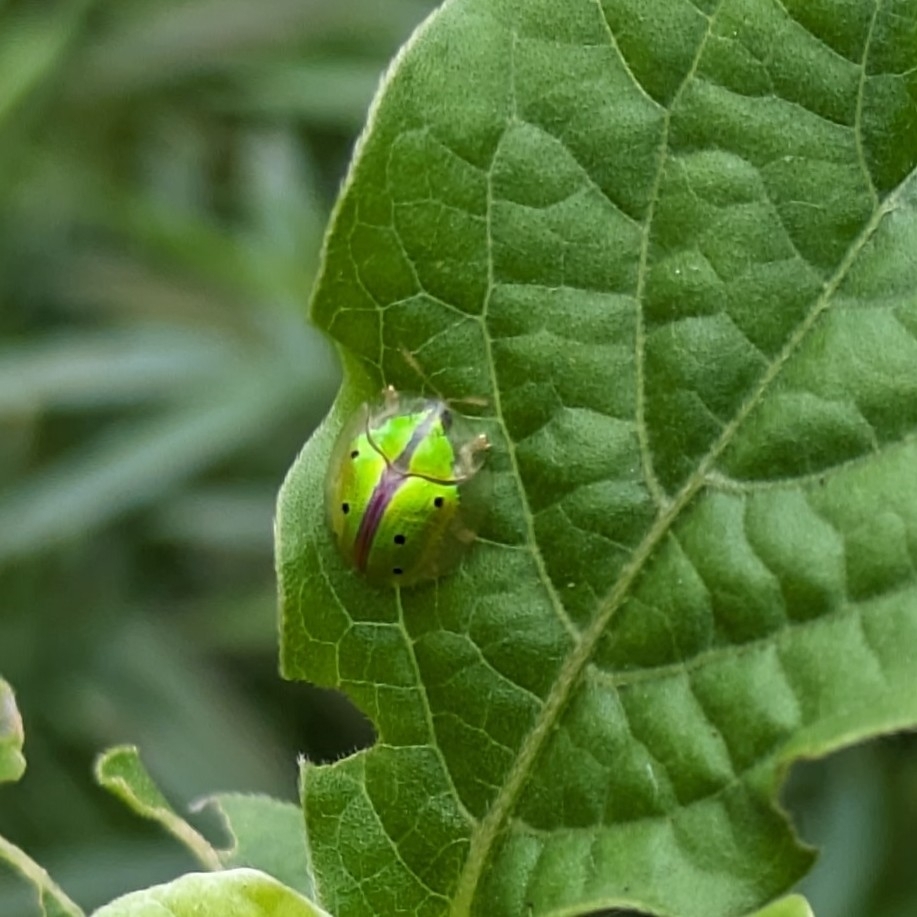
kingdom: Animalia
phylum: Arthropoda
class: Insecta
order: Coleoptera
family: Chrysomelidae
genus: Chiridopsis
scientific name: Chiridopsis bipunctata
